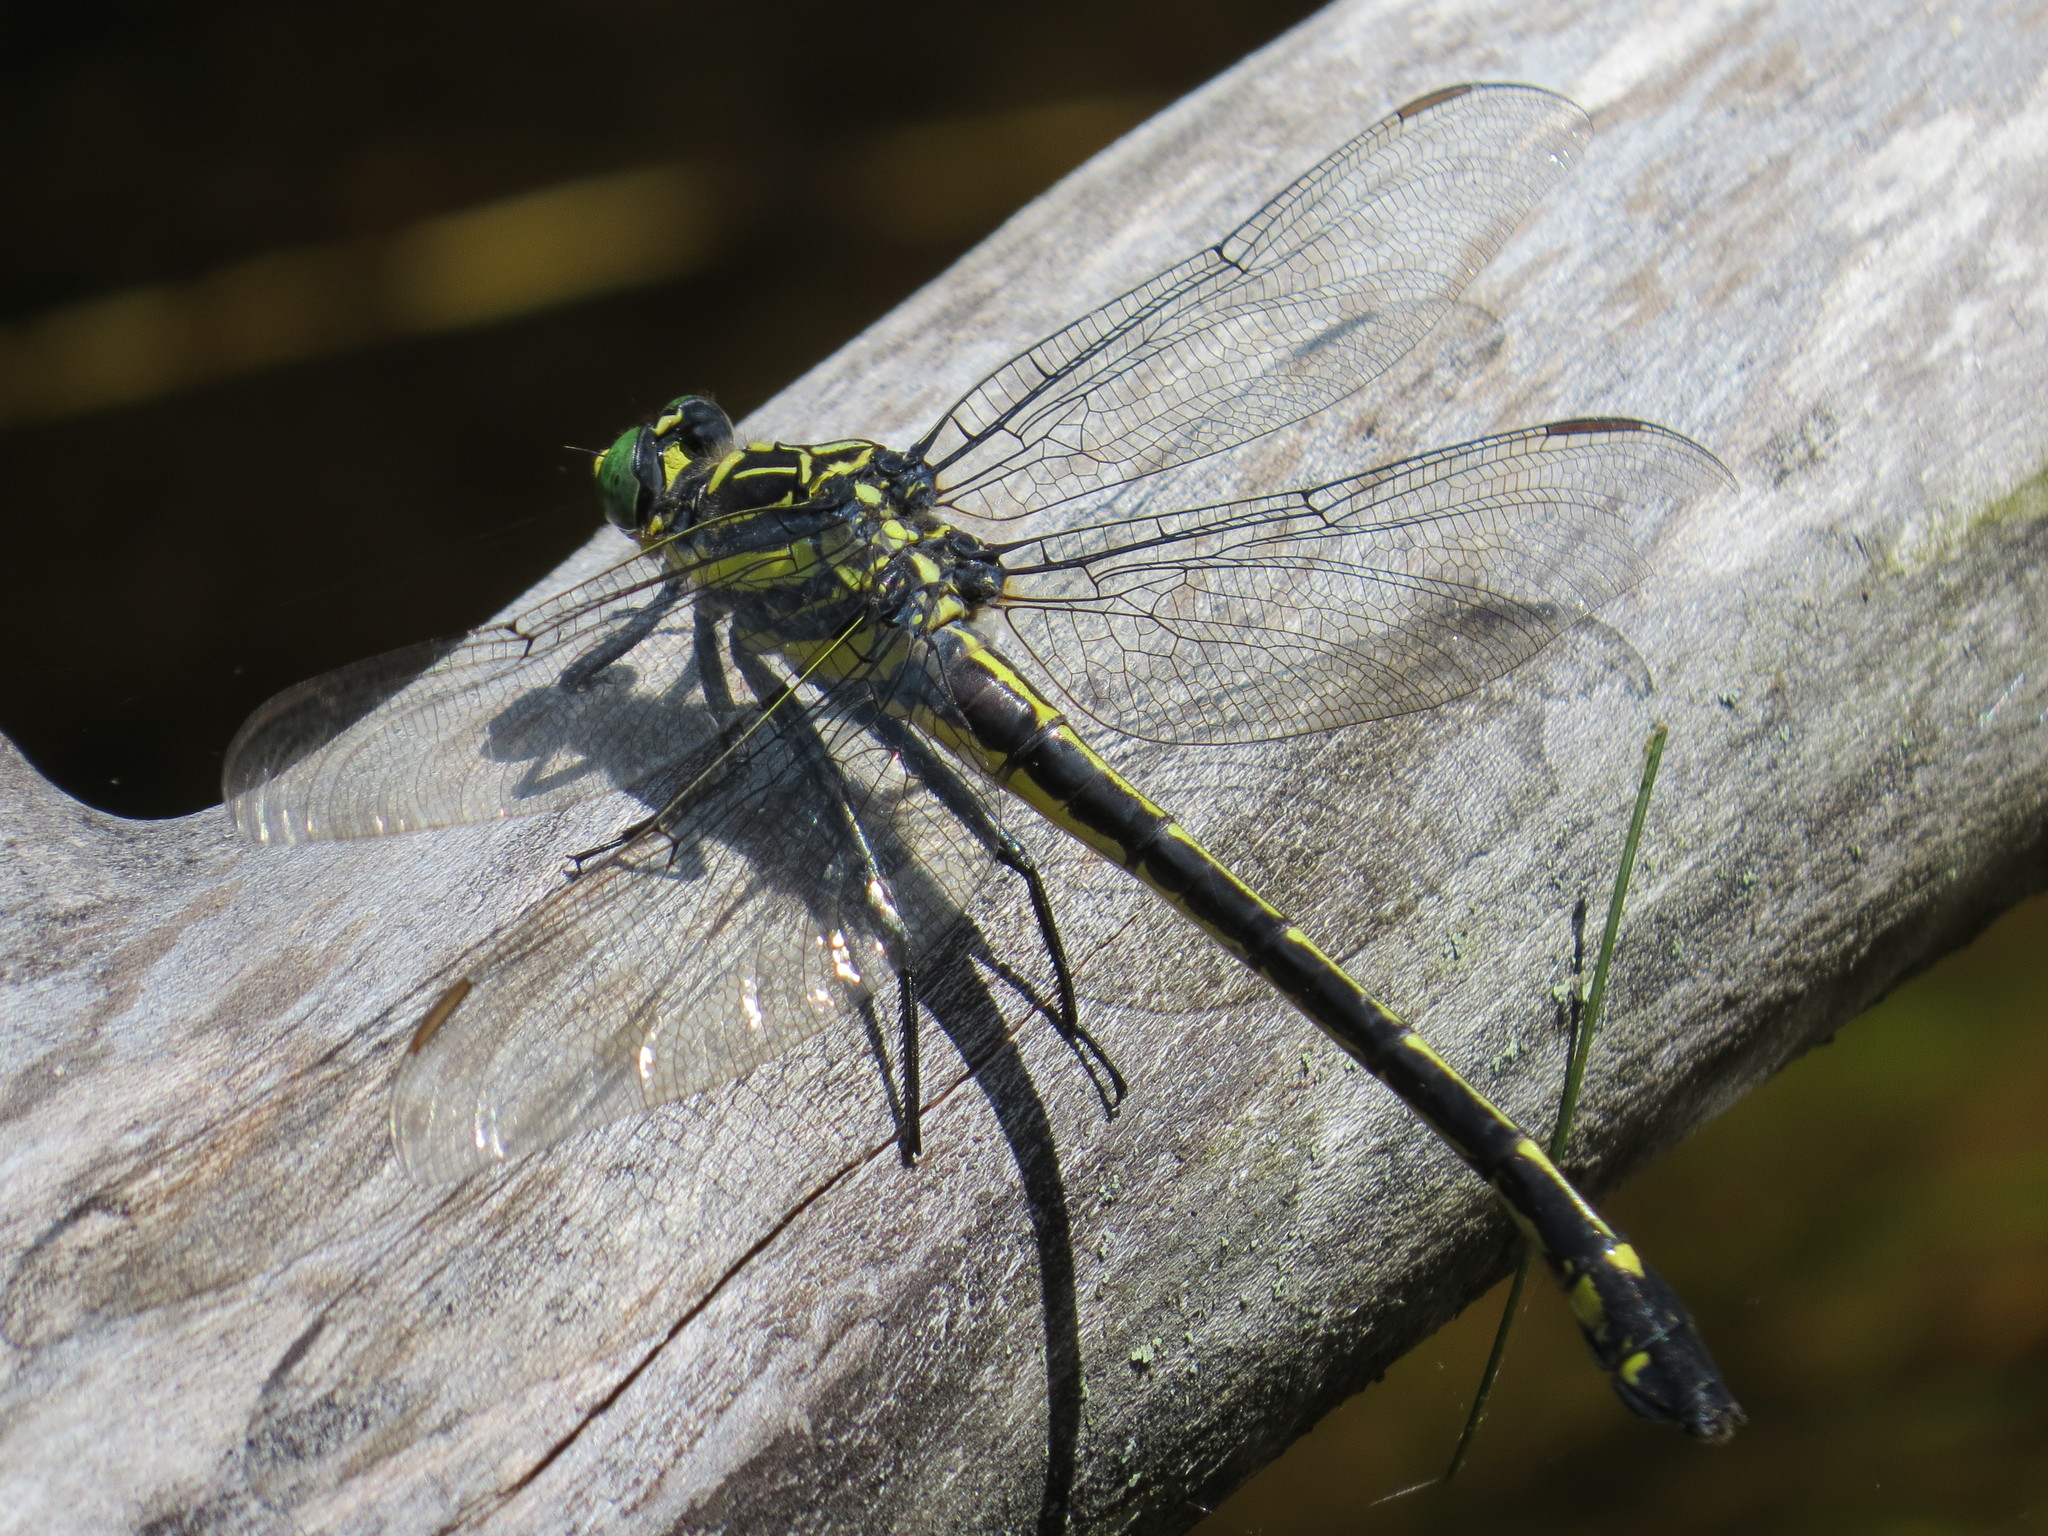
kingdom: Animalia
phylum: Arthropoda
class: Insecta
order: Odonata
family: Gomphidae
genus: Hagenius
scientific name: Hagenius brevistylus
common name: Dragonhunter
